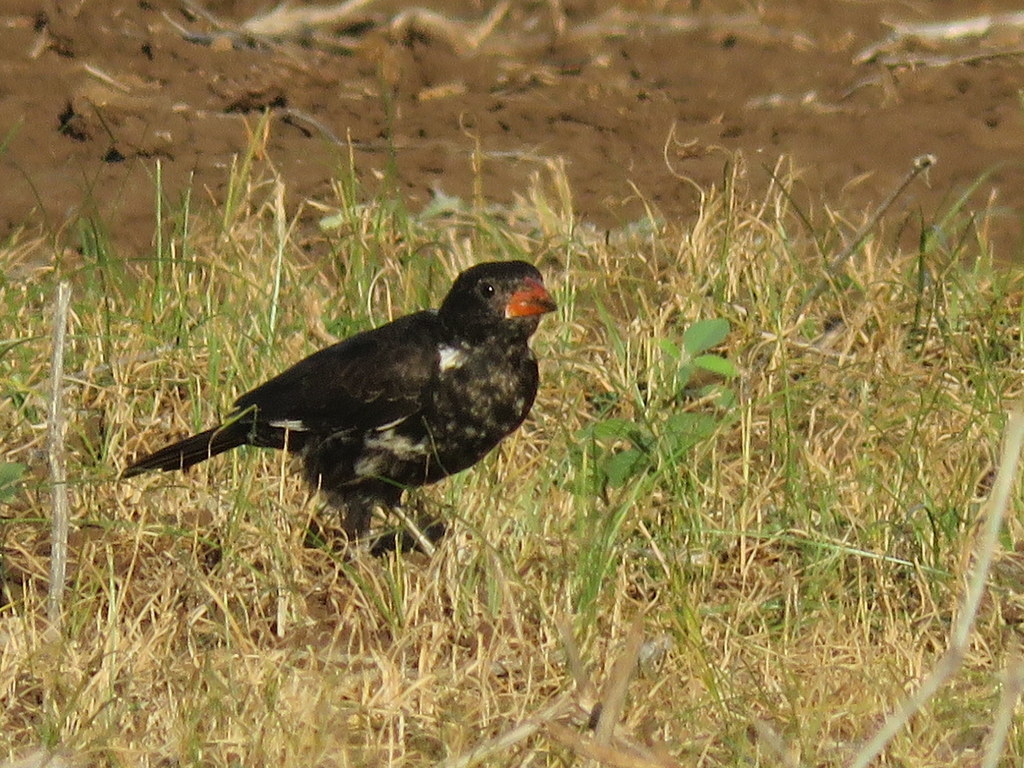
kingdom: Animalia
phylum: Chordata
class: Aves
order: Passeriformes
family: Ploceidae
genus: Bubalornis
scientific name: Bubalornis niger
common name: Red-billed buffalo weaver
